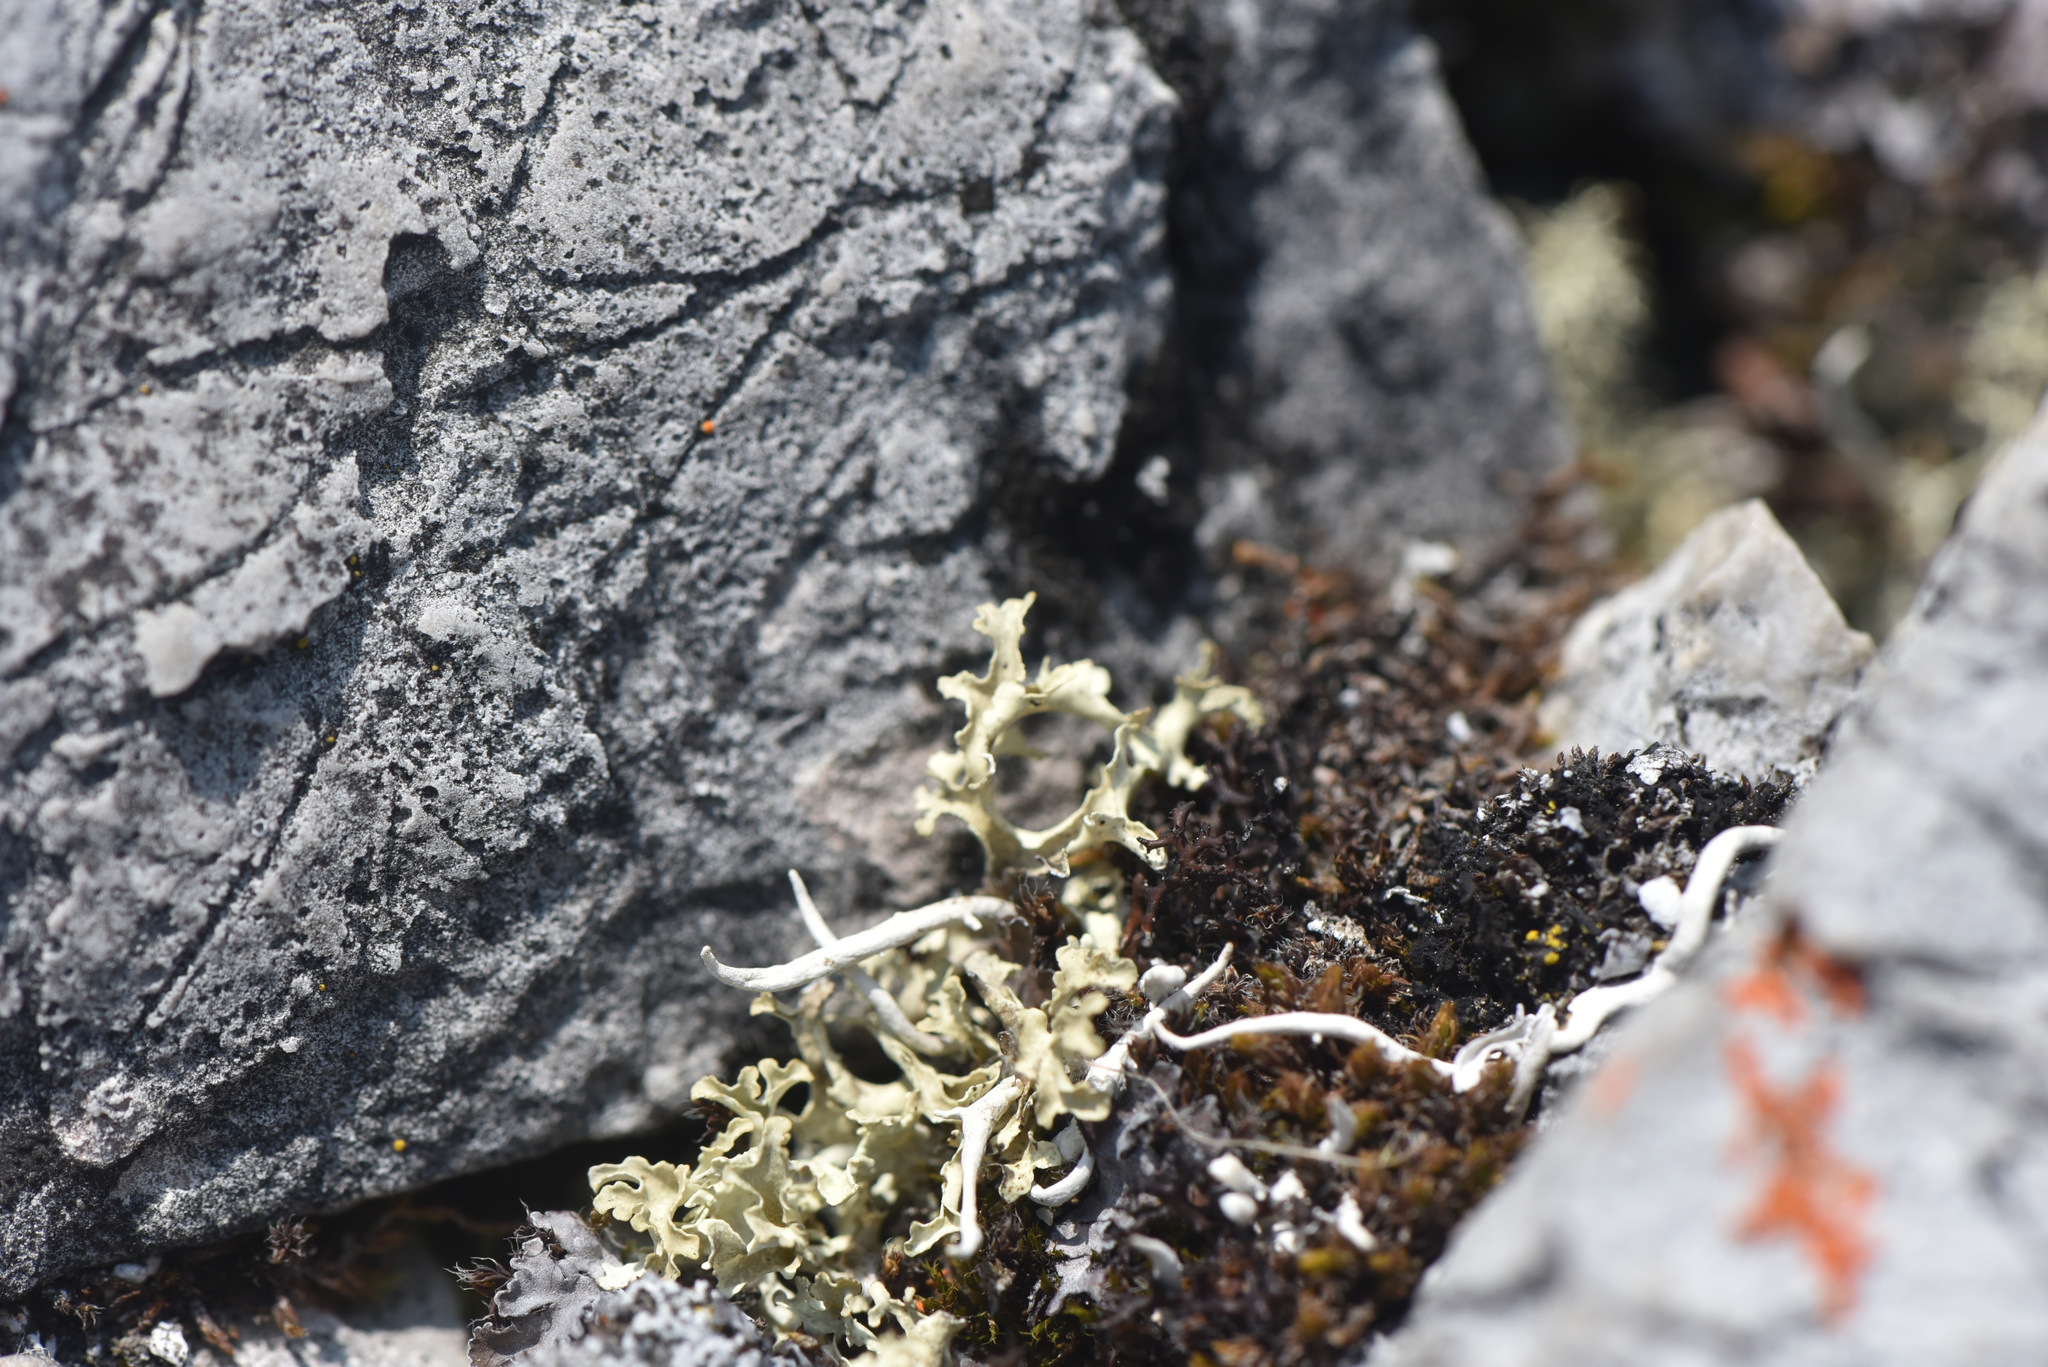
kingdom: Fungi
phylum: Ascomycota
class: Lecanoromycetes
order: Lecanorales
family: Parmeliaceae
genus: Nephromopsis
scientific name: Nephromopsis cucullata
